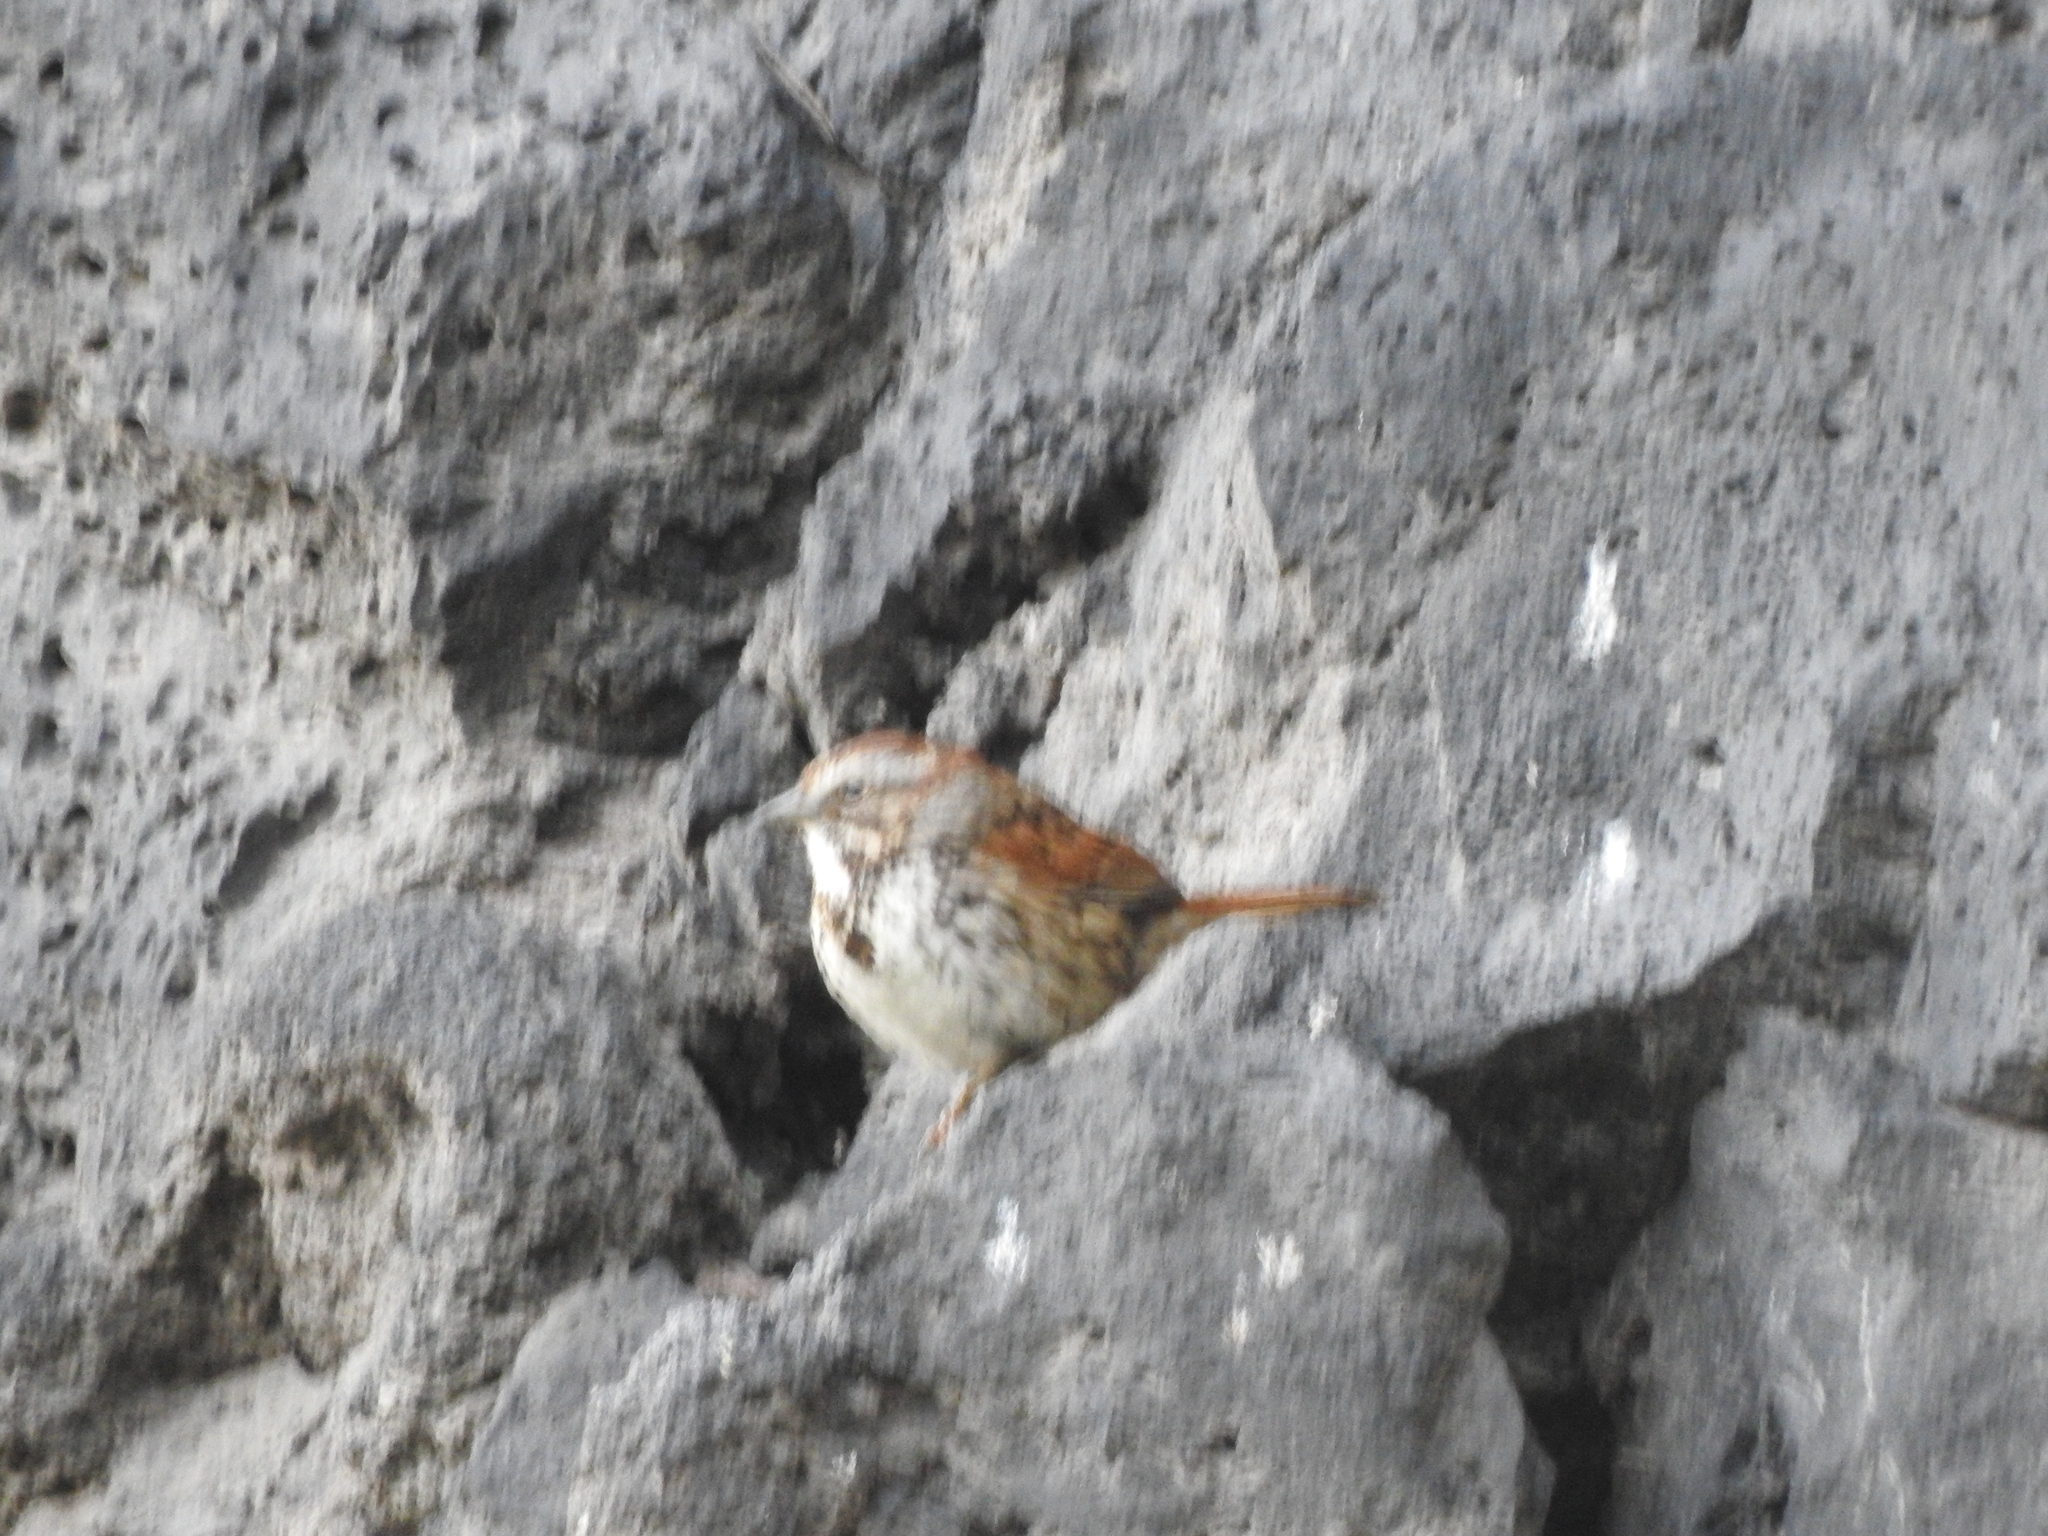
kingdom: Animalia
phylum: Chordata
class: Aves
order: Passeriformes
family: Passerellidae
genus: Melospiza
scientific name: Melospiza melodia
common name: Song sparrow
